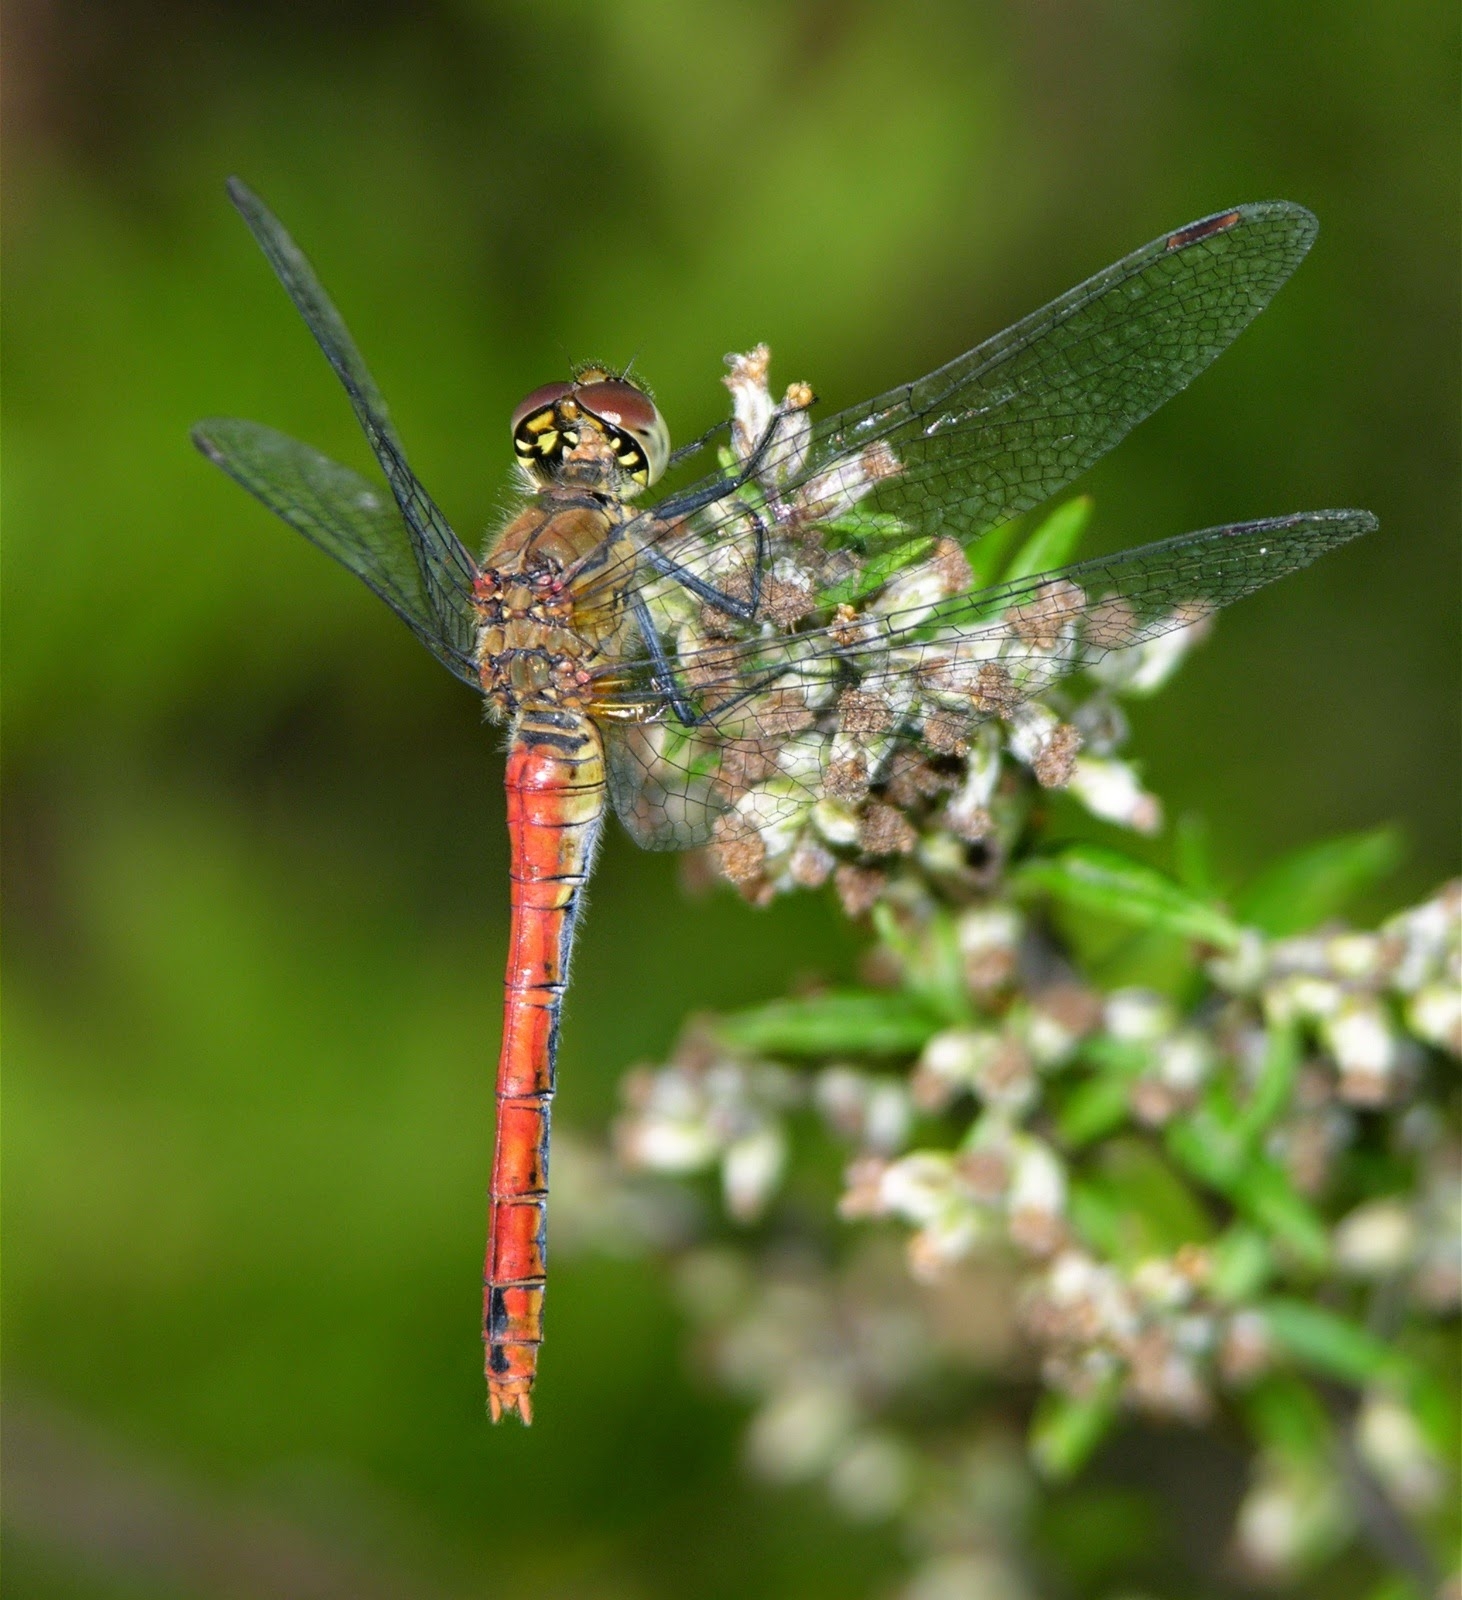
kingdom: Animalia
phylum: Arthropoda
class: Insecta
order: Odonata
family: Libellulidae
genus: Sympetrum
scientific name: Sympetrum sanguineum
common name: Ruddy darter
